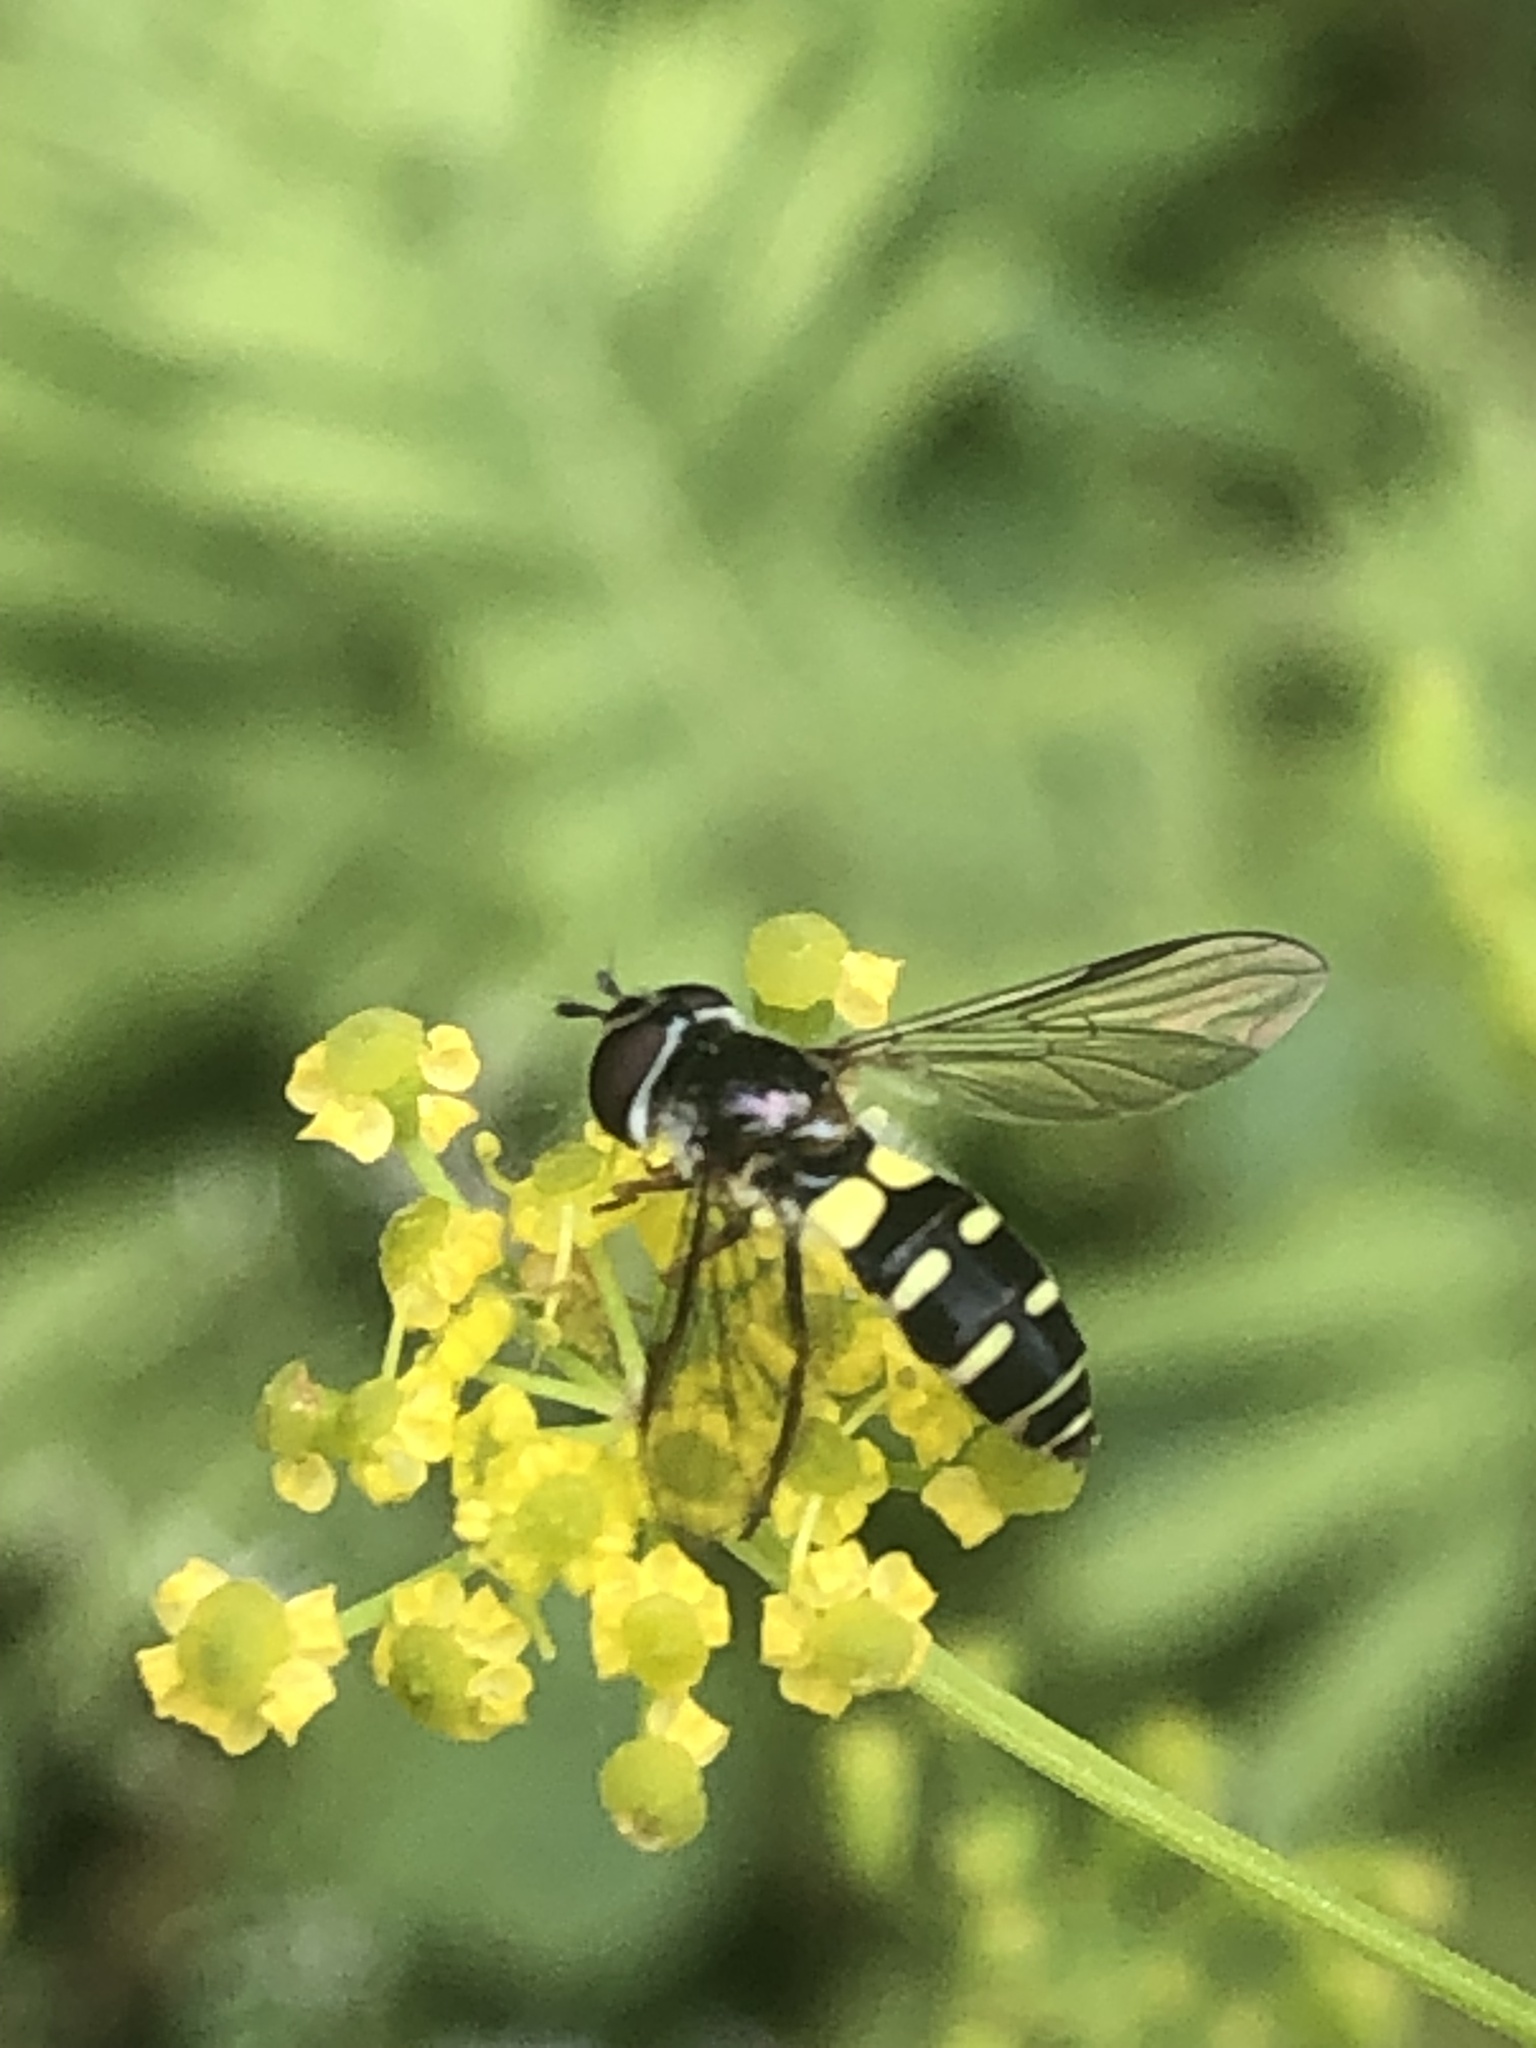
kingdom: Animalia
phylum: Arthropoda
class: Insecta
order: Diptera
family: Syrphidae
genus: Melangyna
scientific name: Melangyna fisherii
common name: Large-spotted halfband
